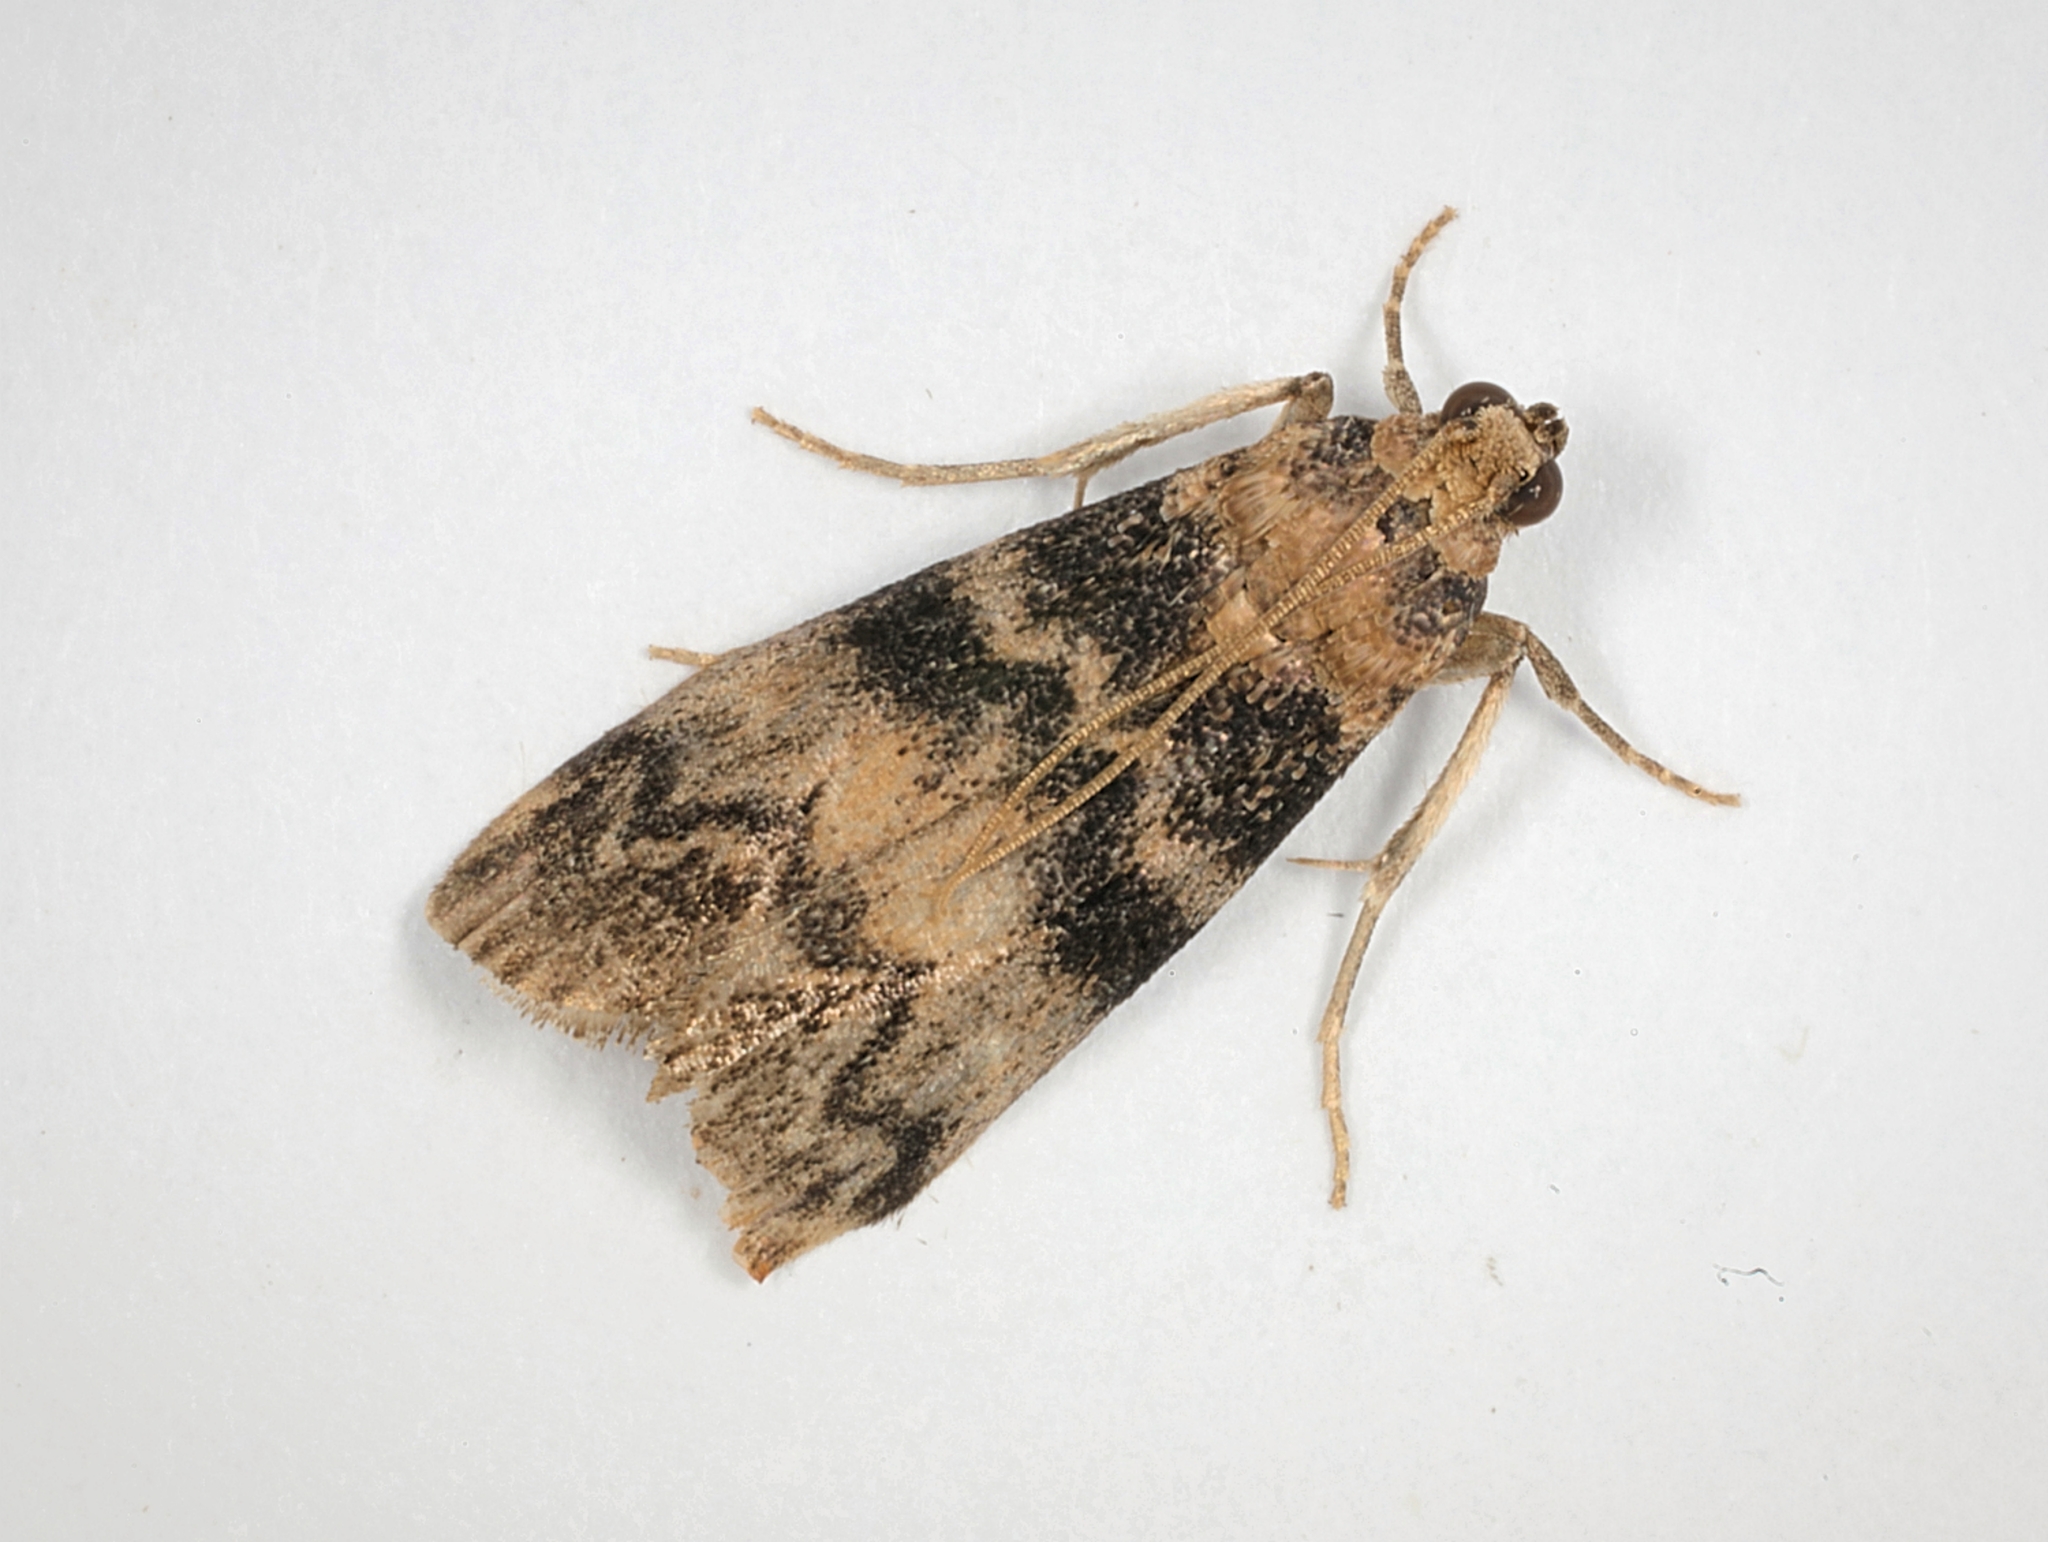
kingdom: Animalia
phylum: Arthropoda
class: Insecta
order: Lepidoptera
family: Pyralidae
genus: Euzophera
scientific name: Euzophera pinguis
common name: Ash-bark knot-horn
